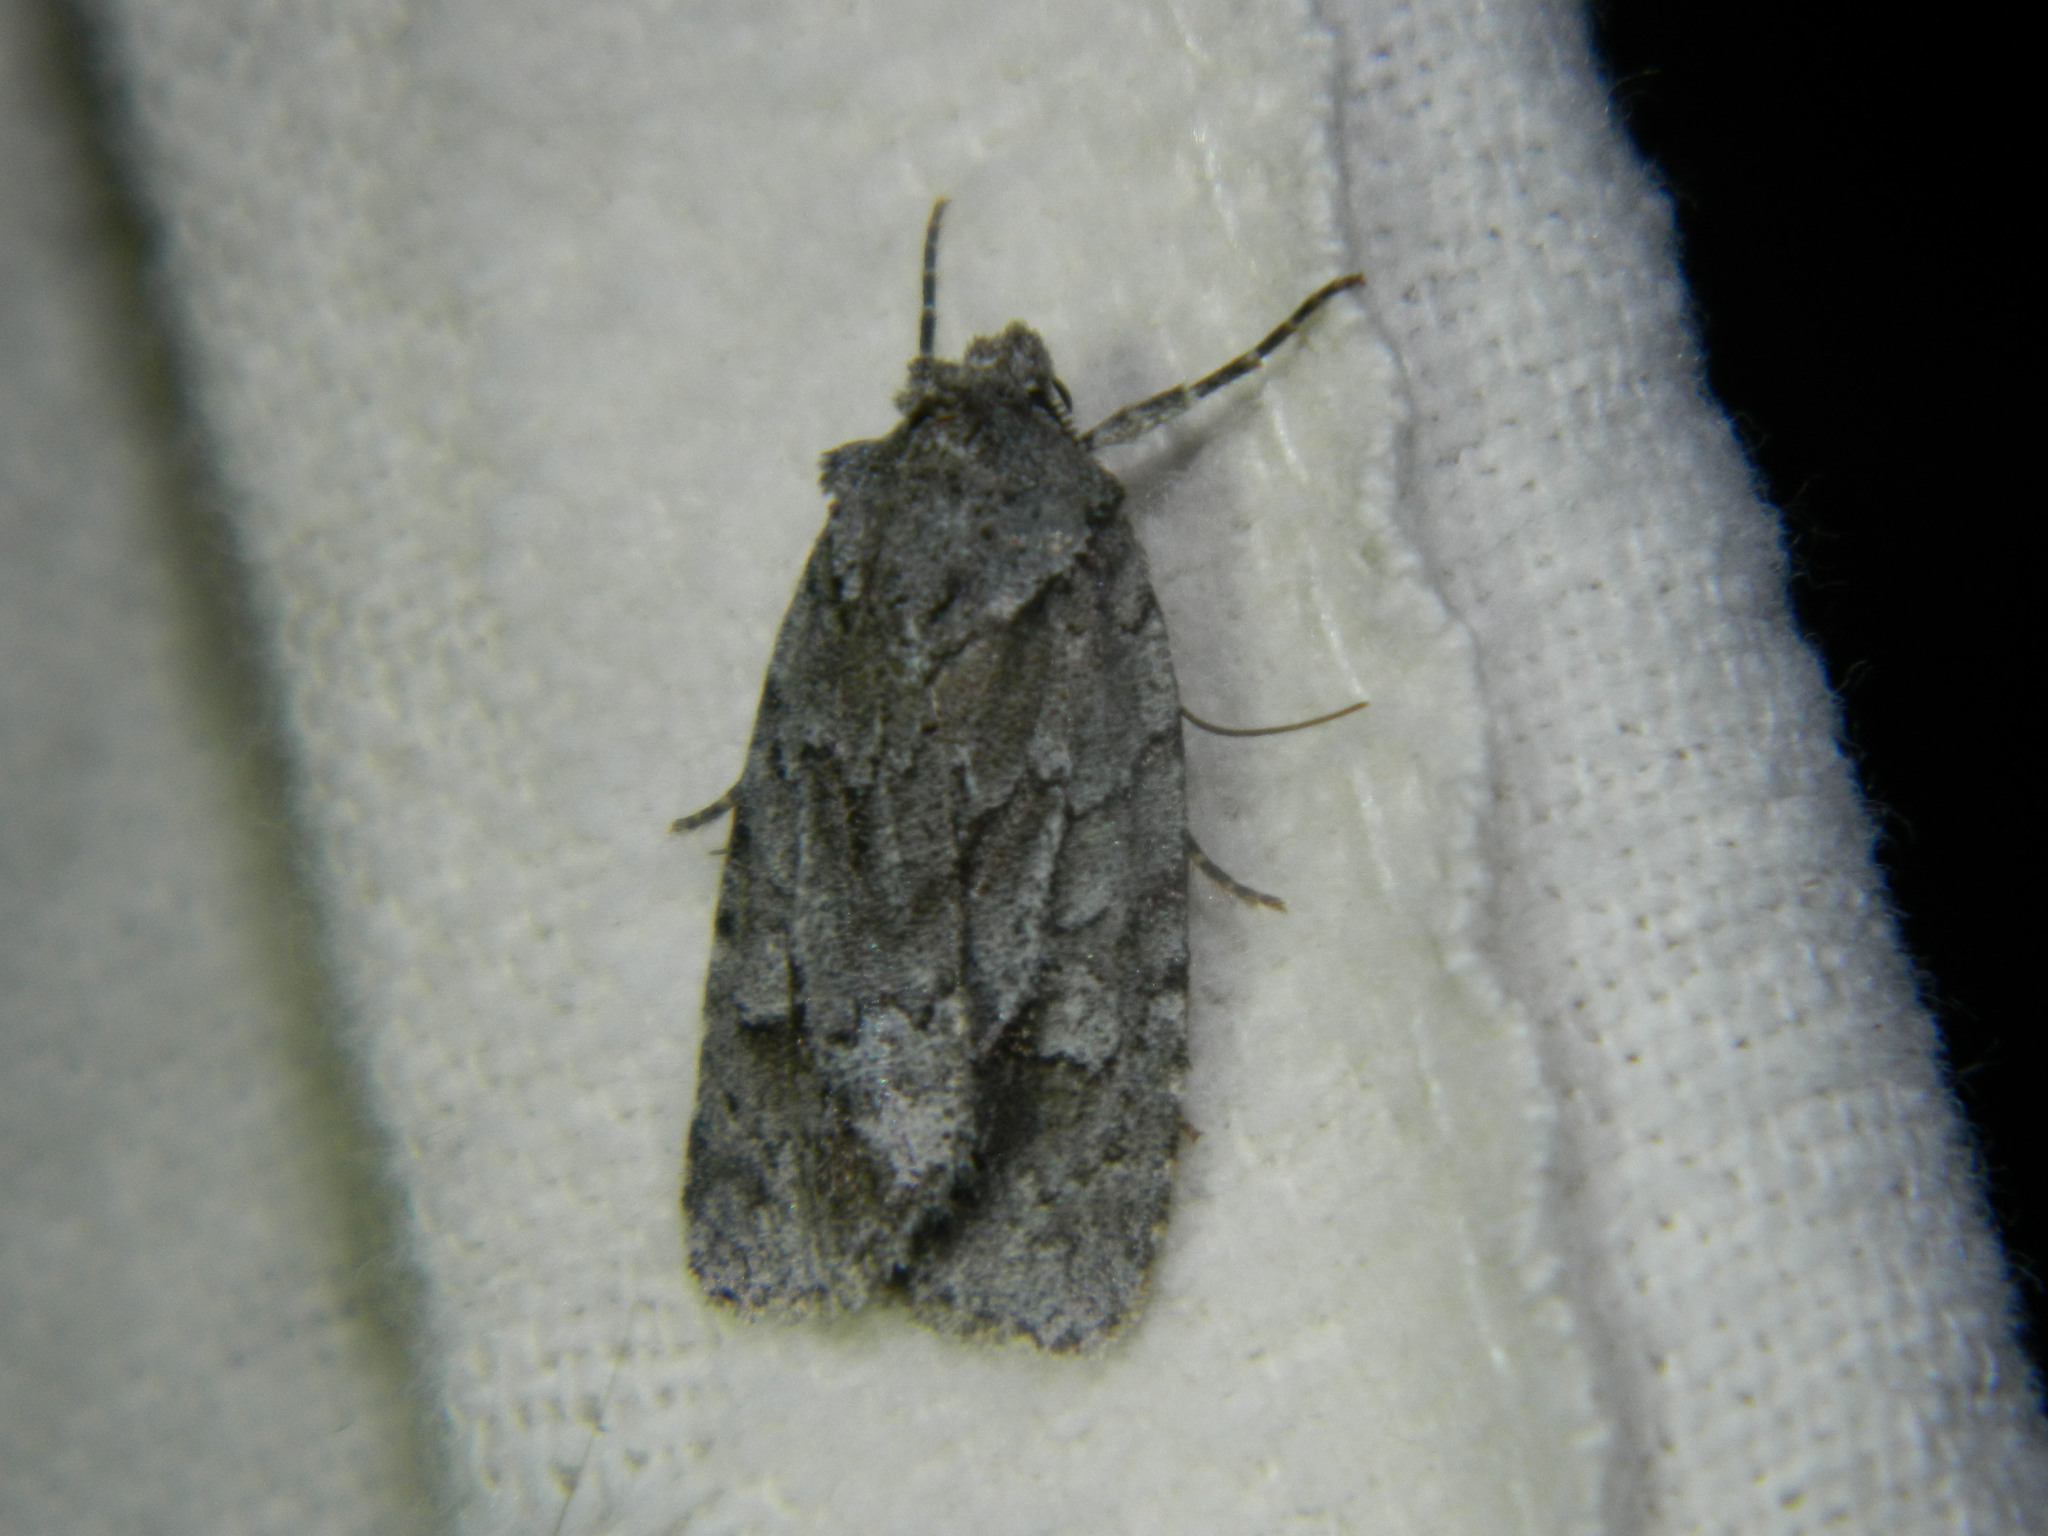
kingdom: Animalia
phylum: Arthropoda
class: Insecta
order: Lepidoptera
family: Noctuidae
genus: Sympistis
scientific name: Sympistis dentata
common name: Blueberry sallow
